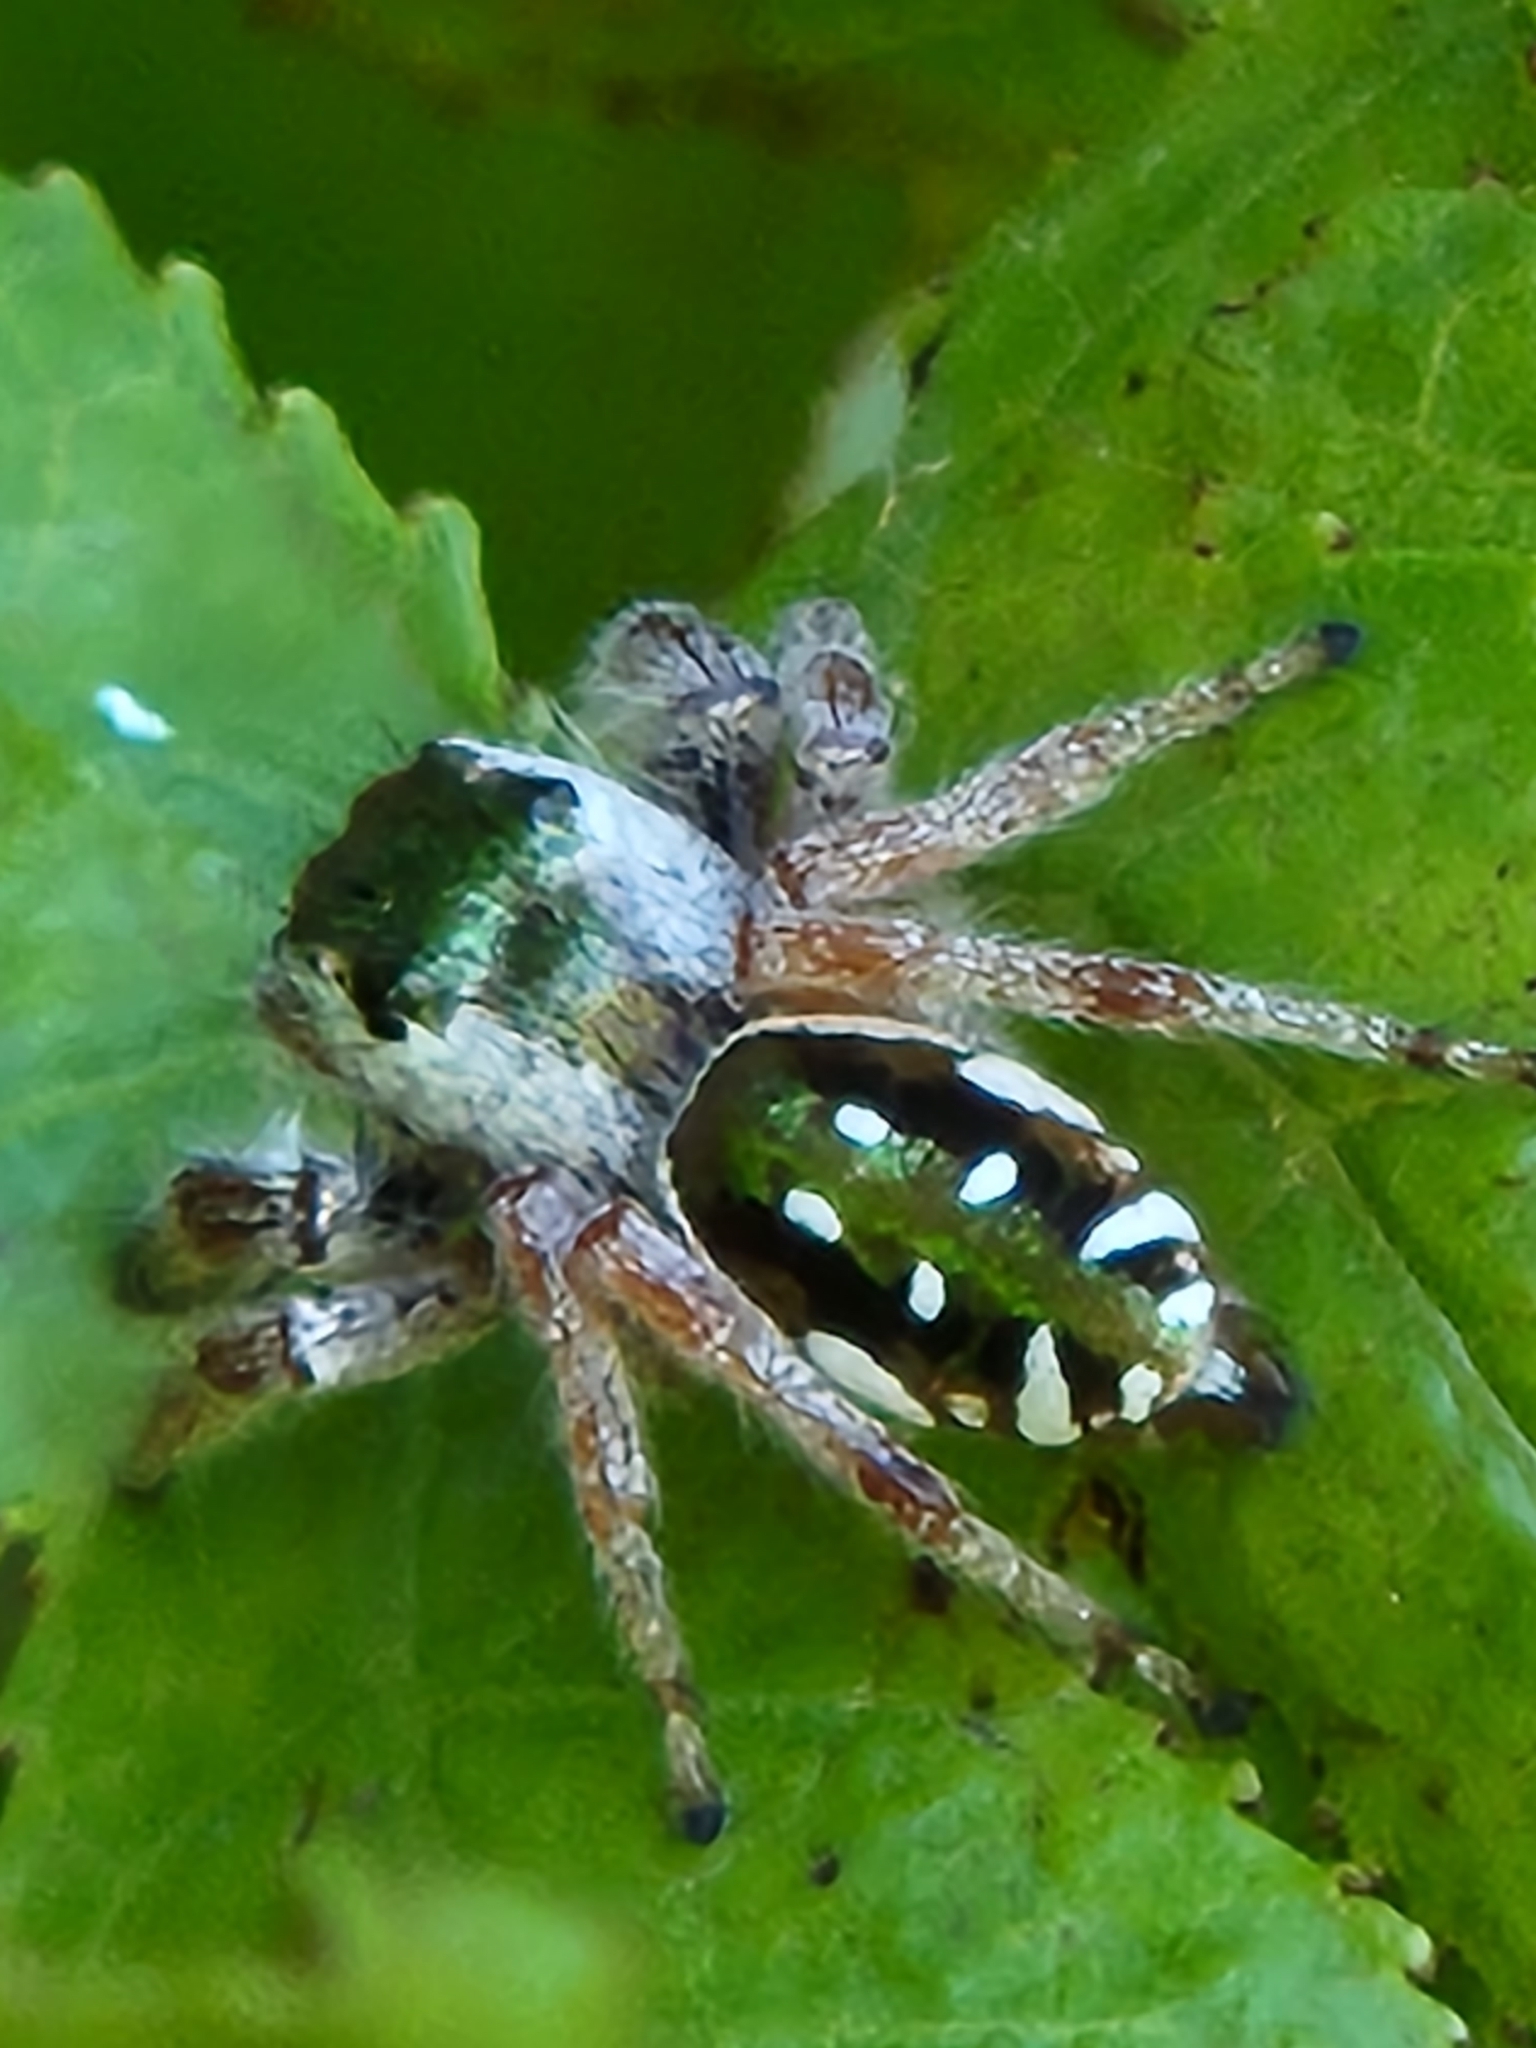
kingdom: Animalia
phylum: Arthropoda
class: Arachnida
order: Araneae
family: Salticidae
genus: Paraphidippus
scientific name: Paraphidippus aurantius
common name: Jumping spiders
